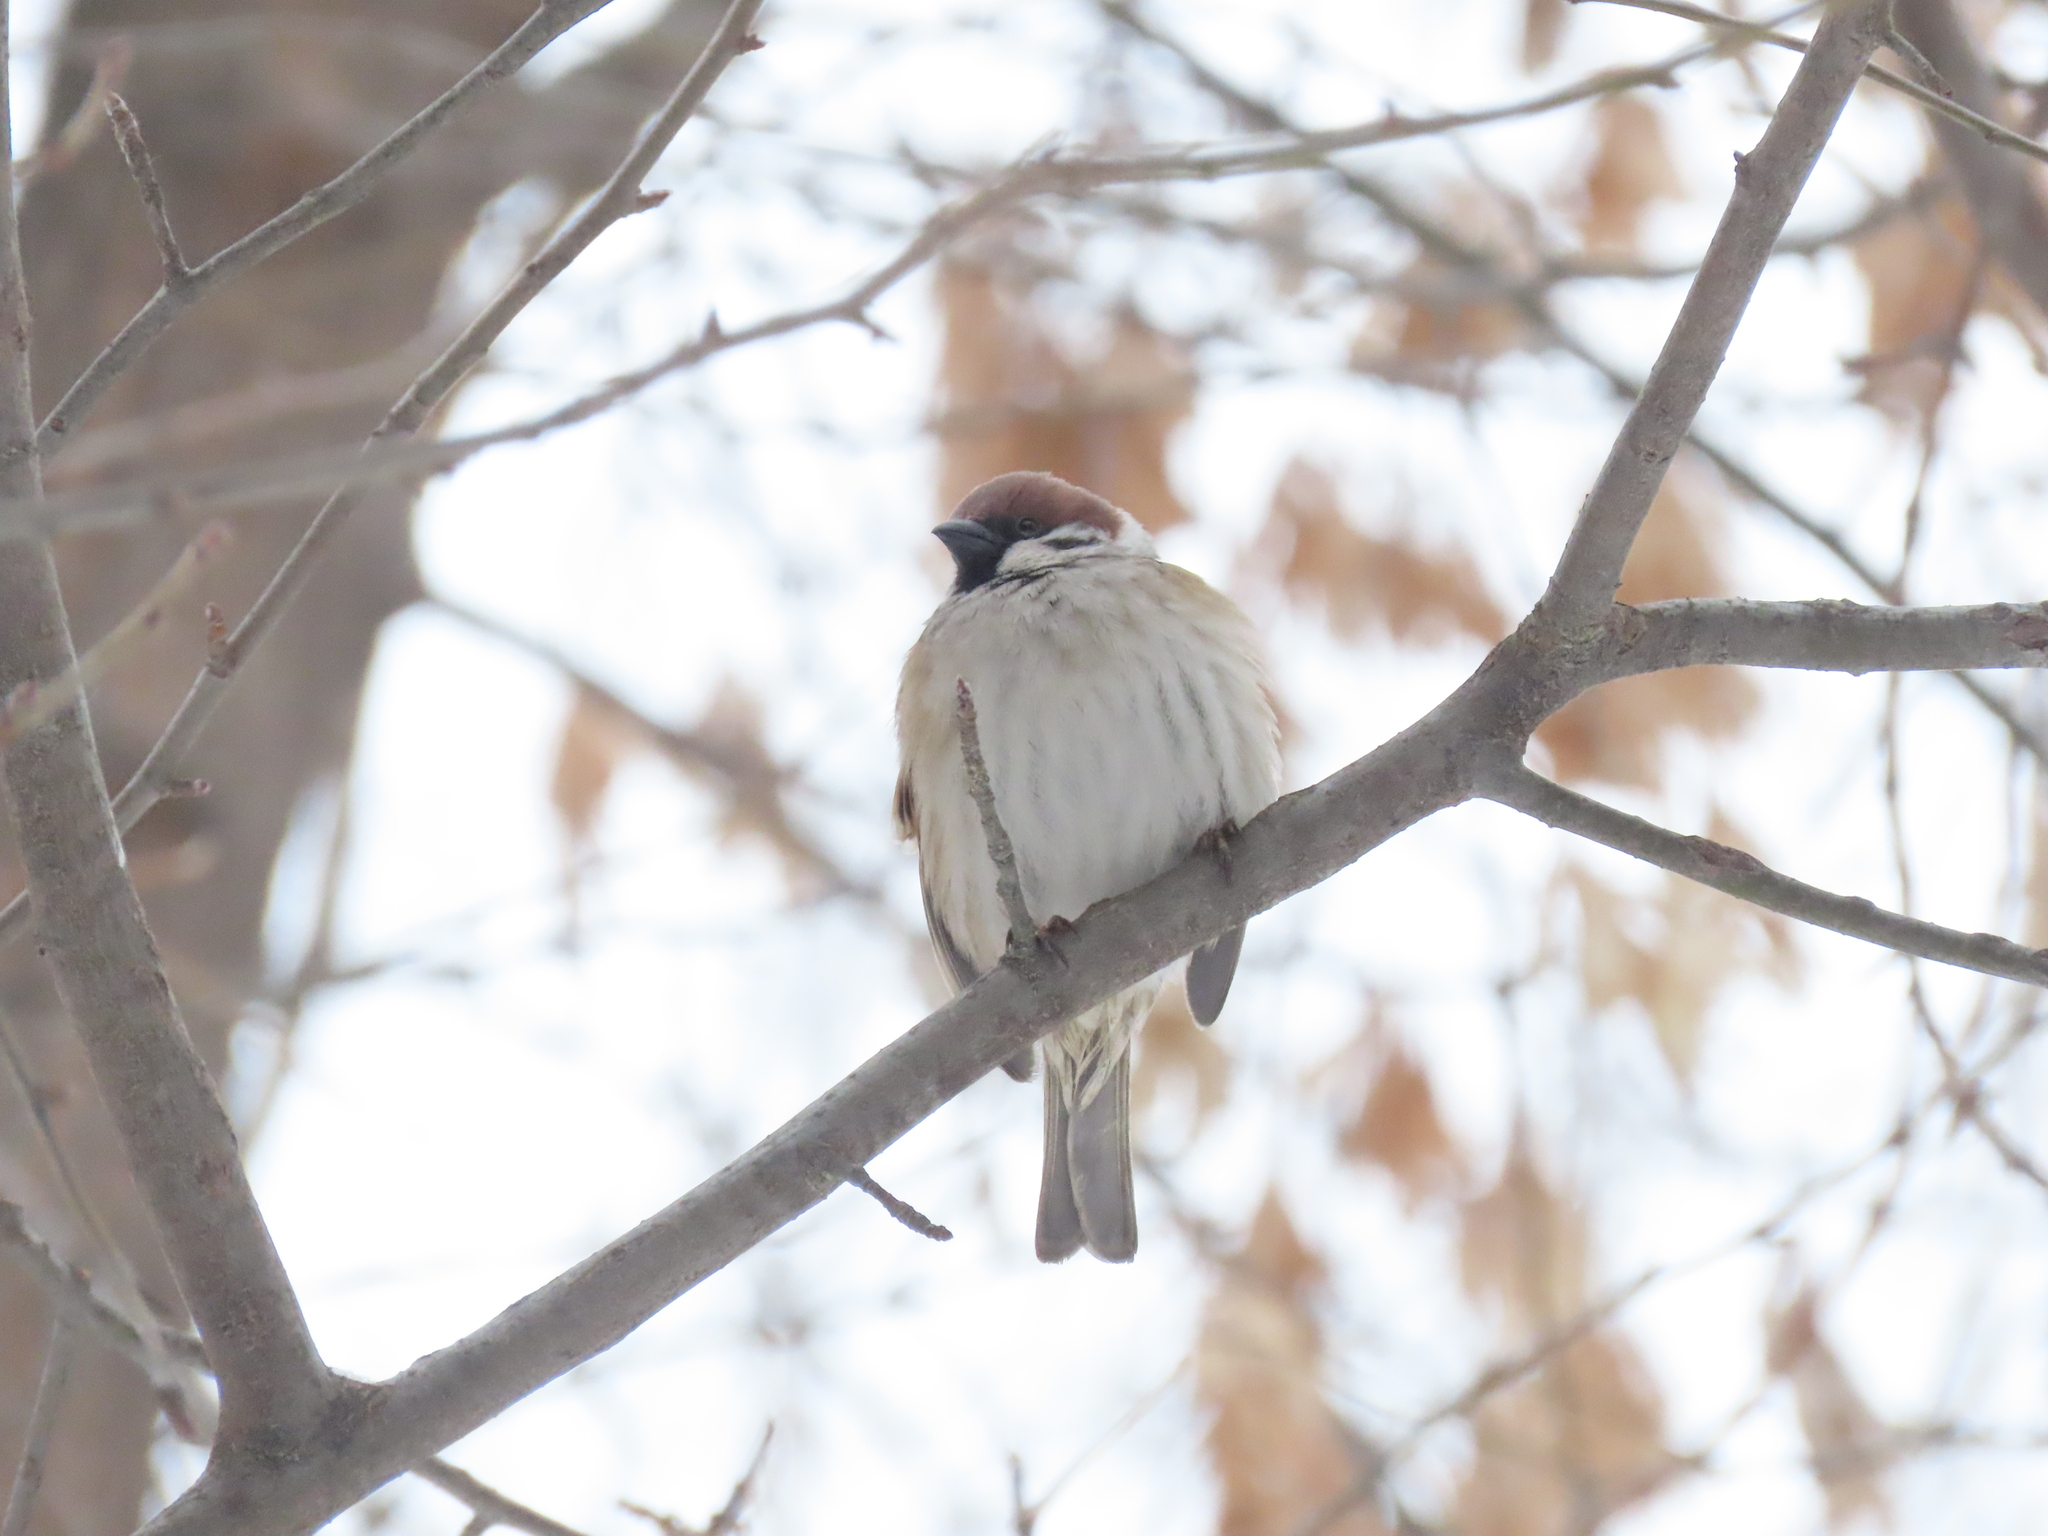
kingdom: Animalia
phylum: Chordata
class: Aves
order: Passeriformes
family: Passeridae
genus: Passer
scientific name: Passer montanus
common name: Eurasian tree sparrow
